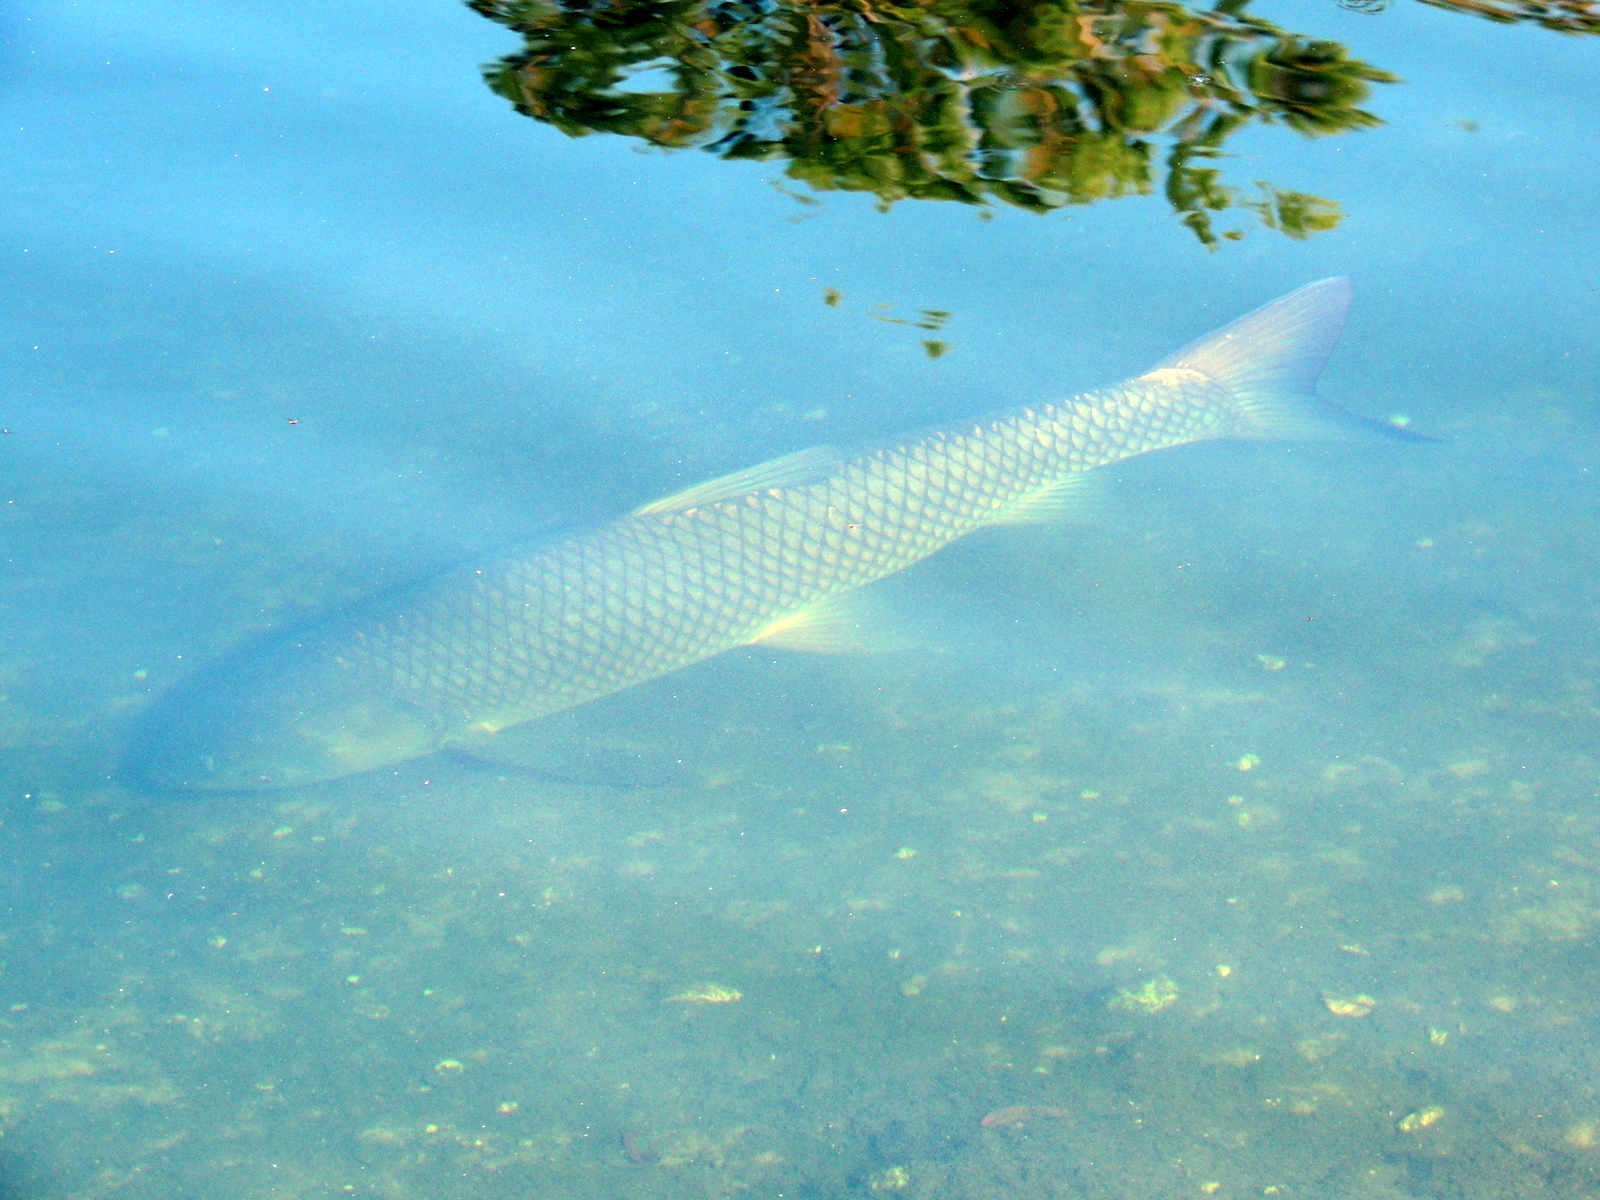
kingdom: Animalia
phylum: Chordata
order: Cypriniformes
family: Cyprinidae
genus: Ctenopharyngodon
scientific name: Ctenopharyngodon idella
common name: Grass carp
